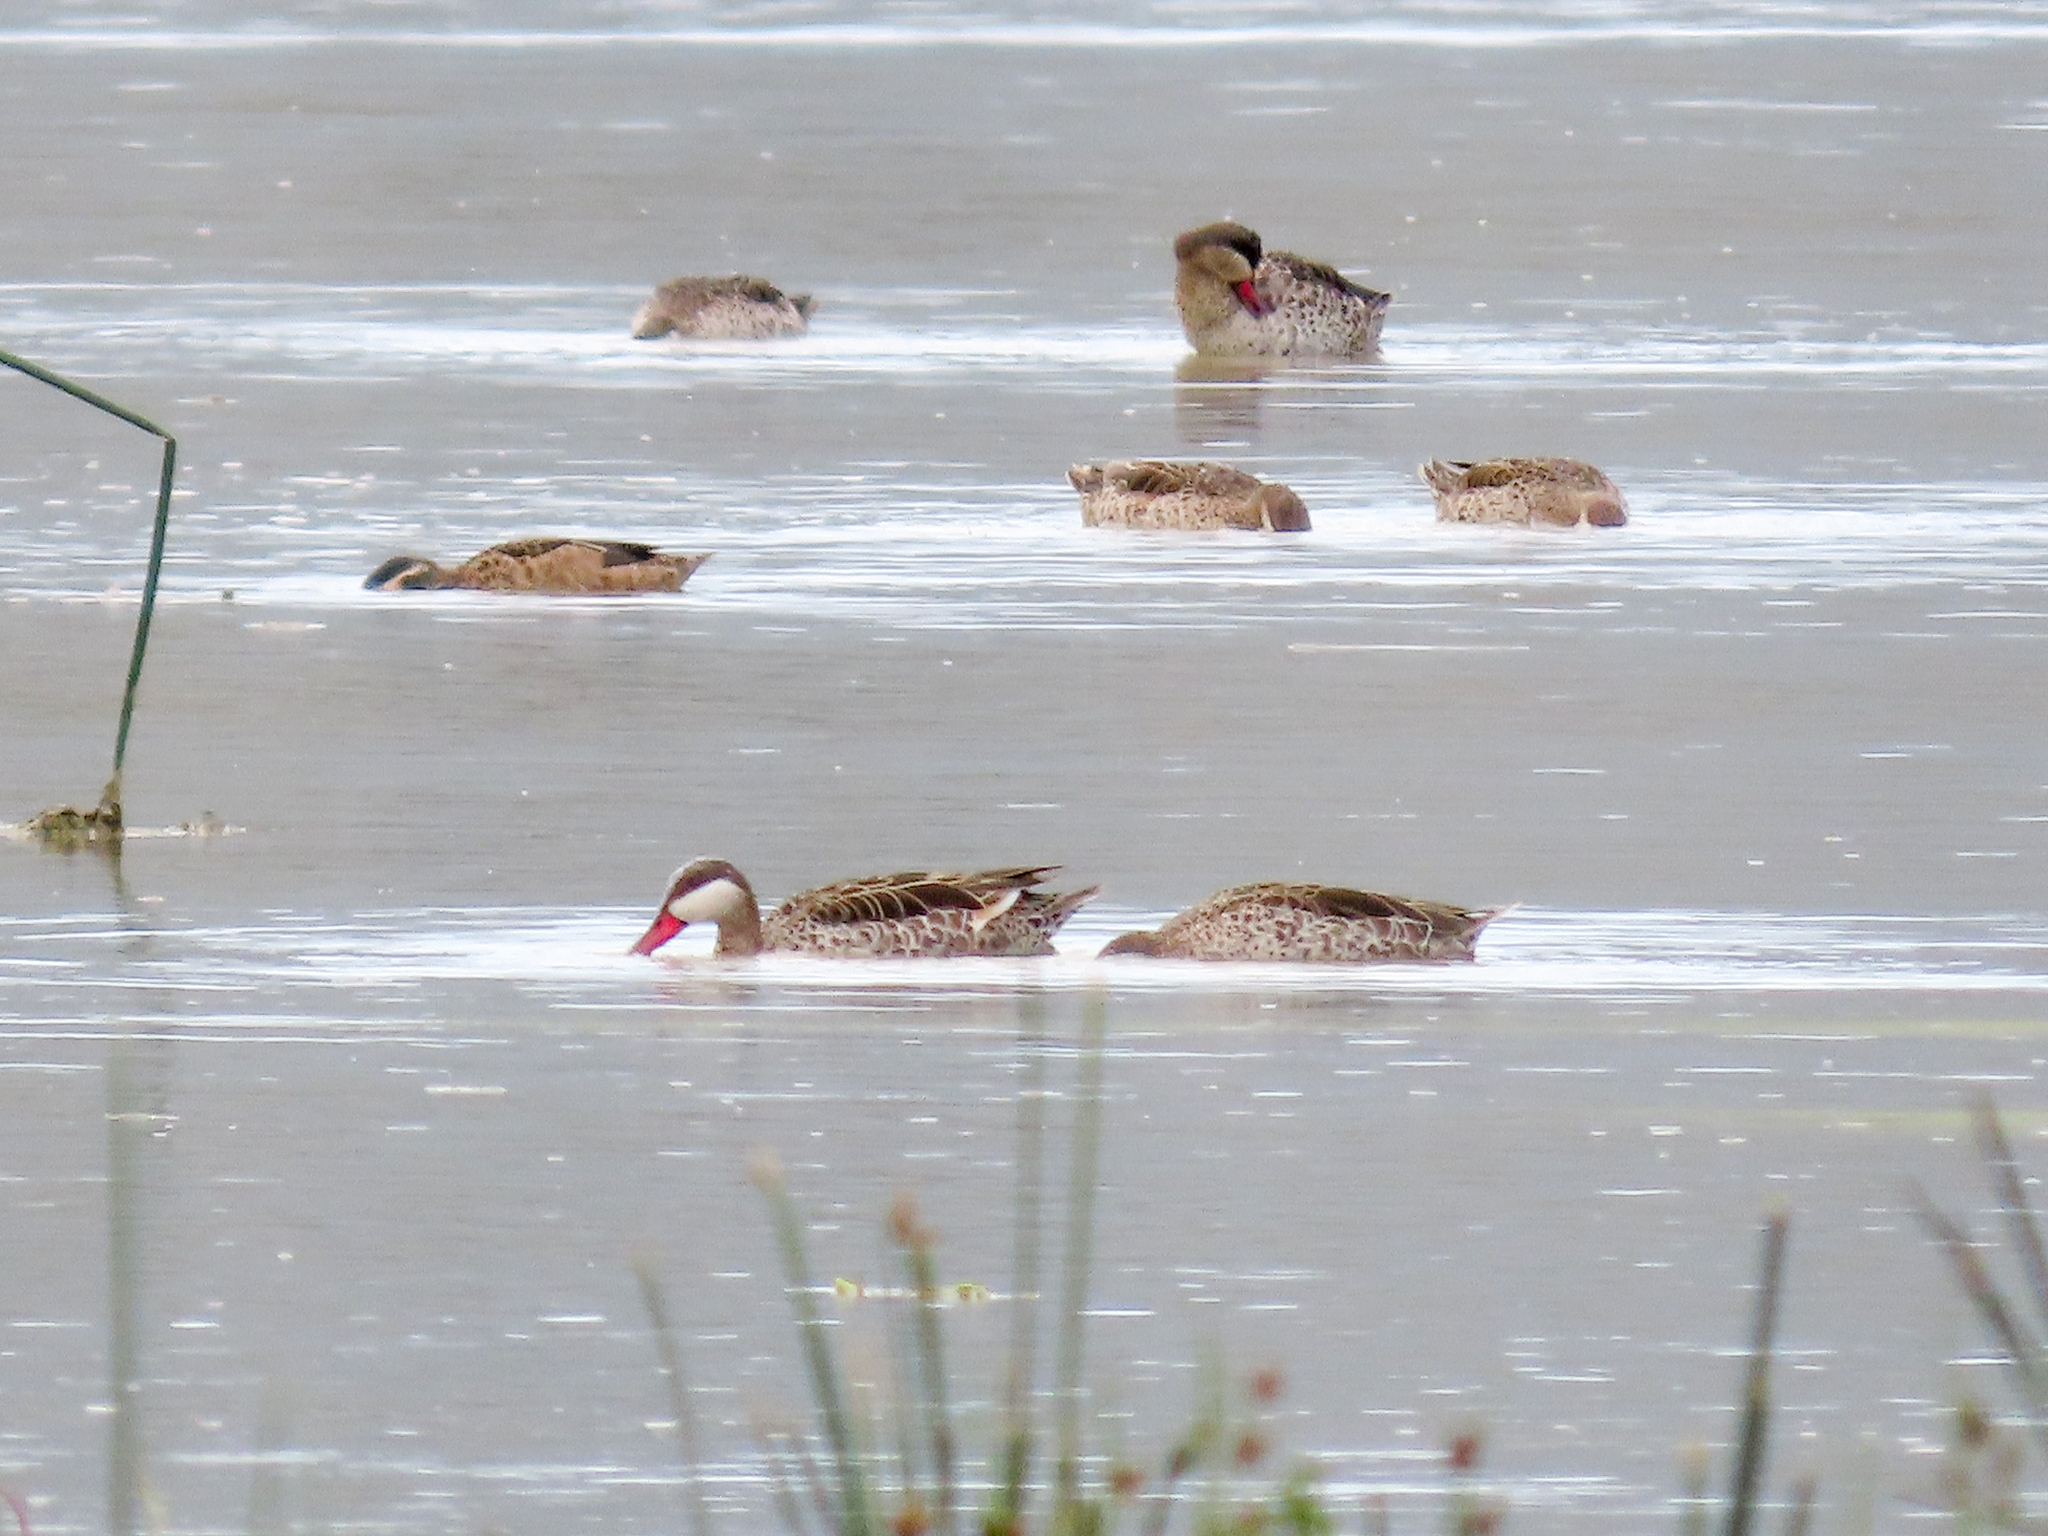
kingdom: Animalia
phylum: Chordata
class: Aves
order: Anseriformes
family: Anatidae
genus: Anas
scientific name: Anas erythrorhyncha
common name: Red-billed teal
